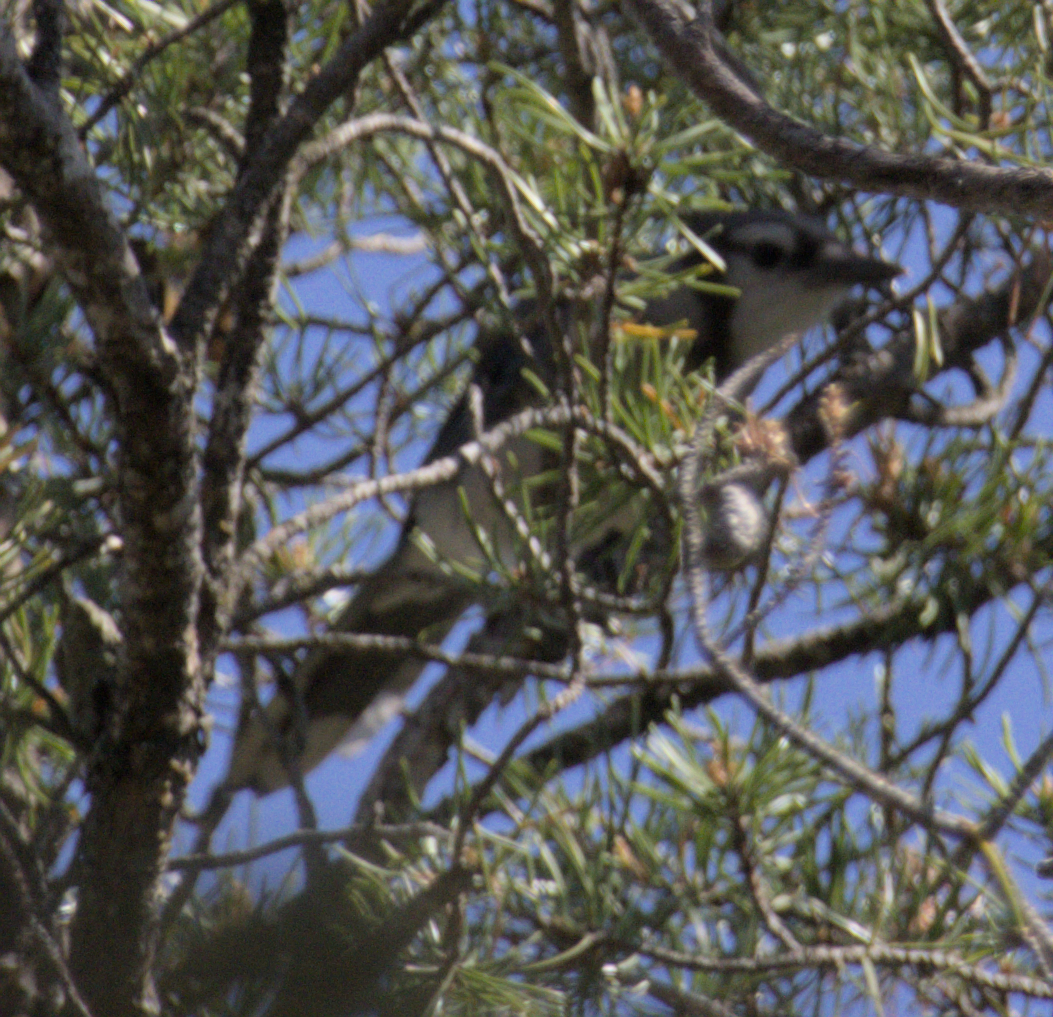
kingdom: Animalia
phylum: Chordata
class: Aves
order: Passeriformes
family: Corvidae
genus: Cyanocitta
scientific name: Cyanocitta cristata
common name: Blue jay
